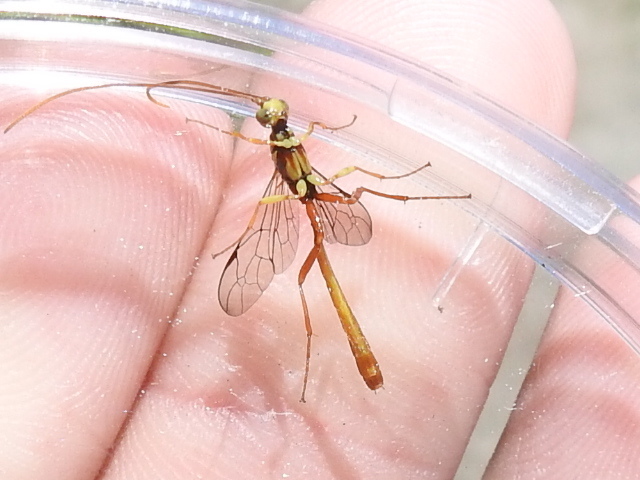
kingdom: Animalia
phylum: Arthropoda
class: Insecta
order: Hymenoptera
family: Ichneumonidae
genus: Grotea
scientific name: Grotea californica
